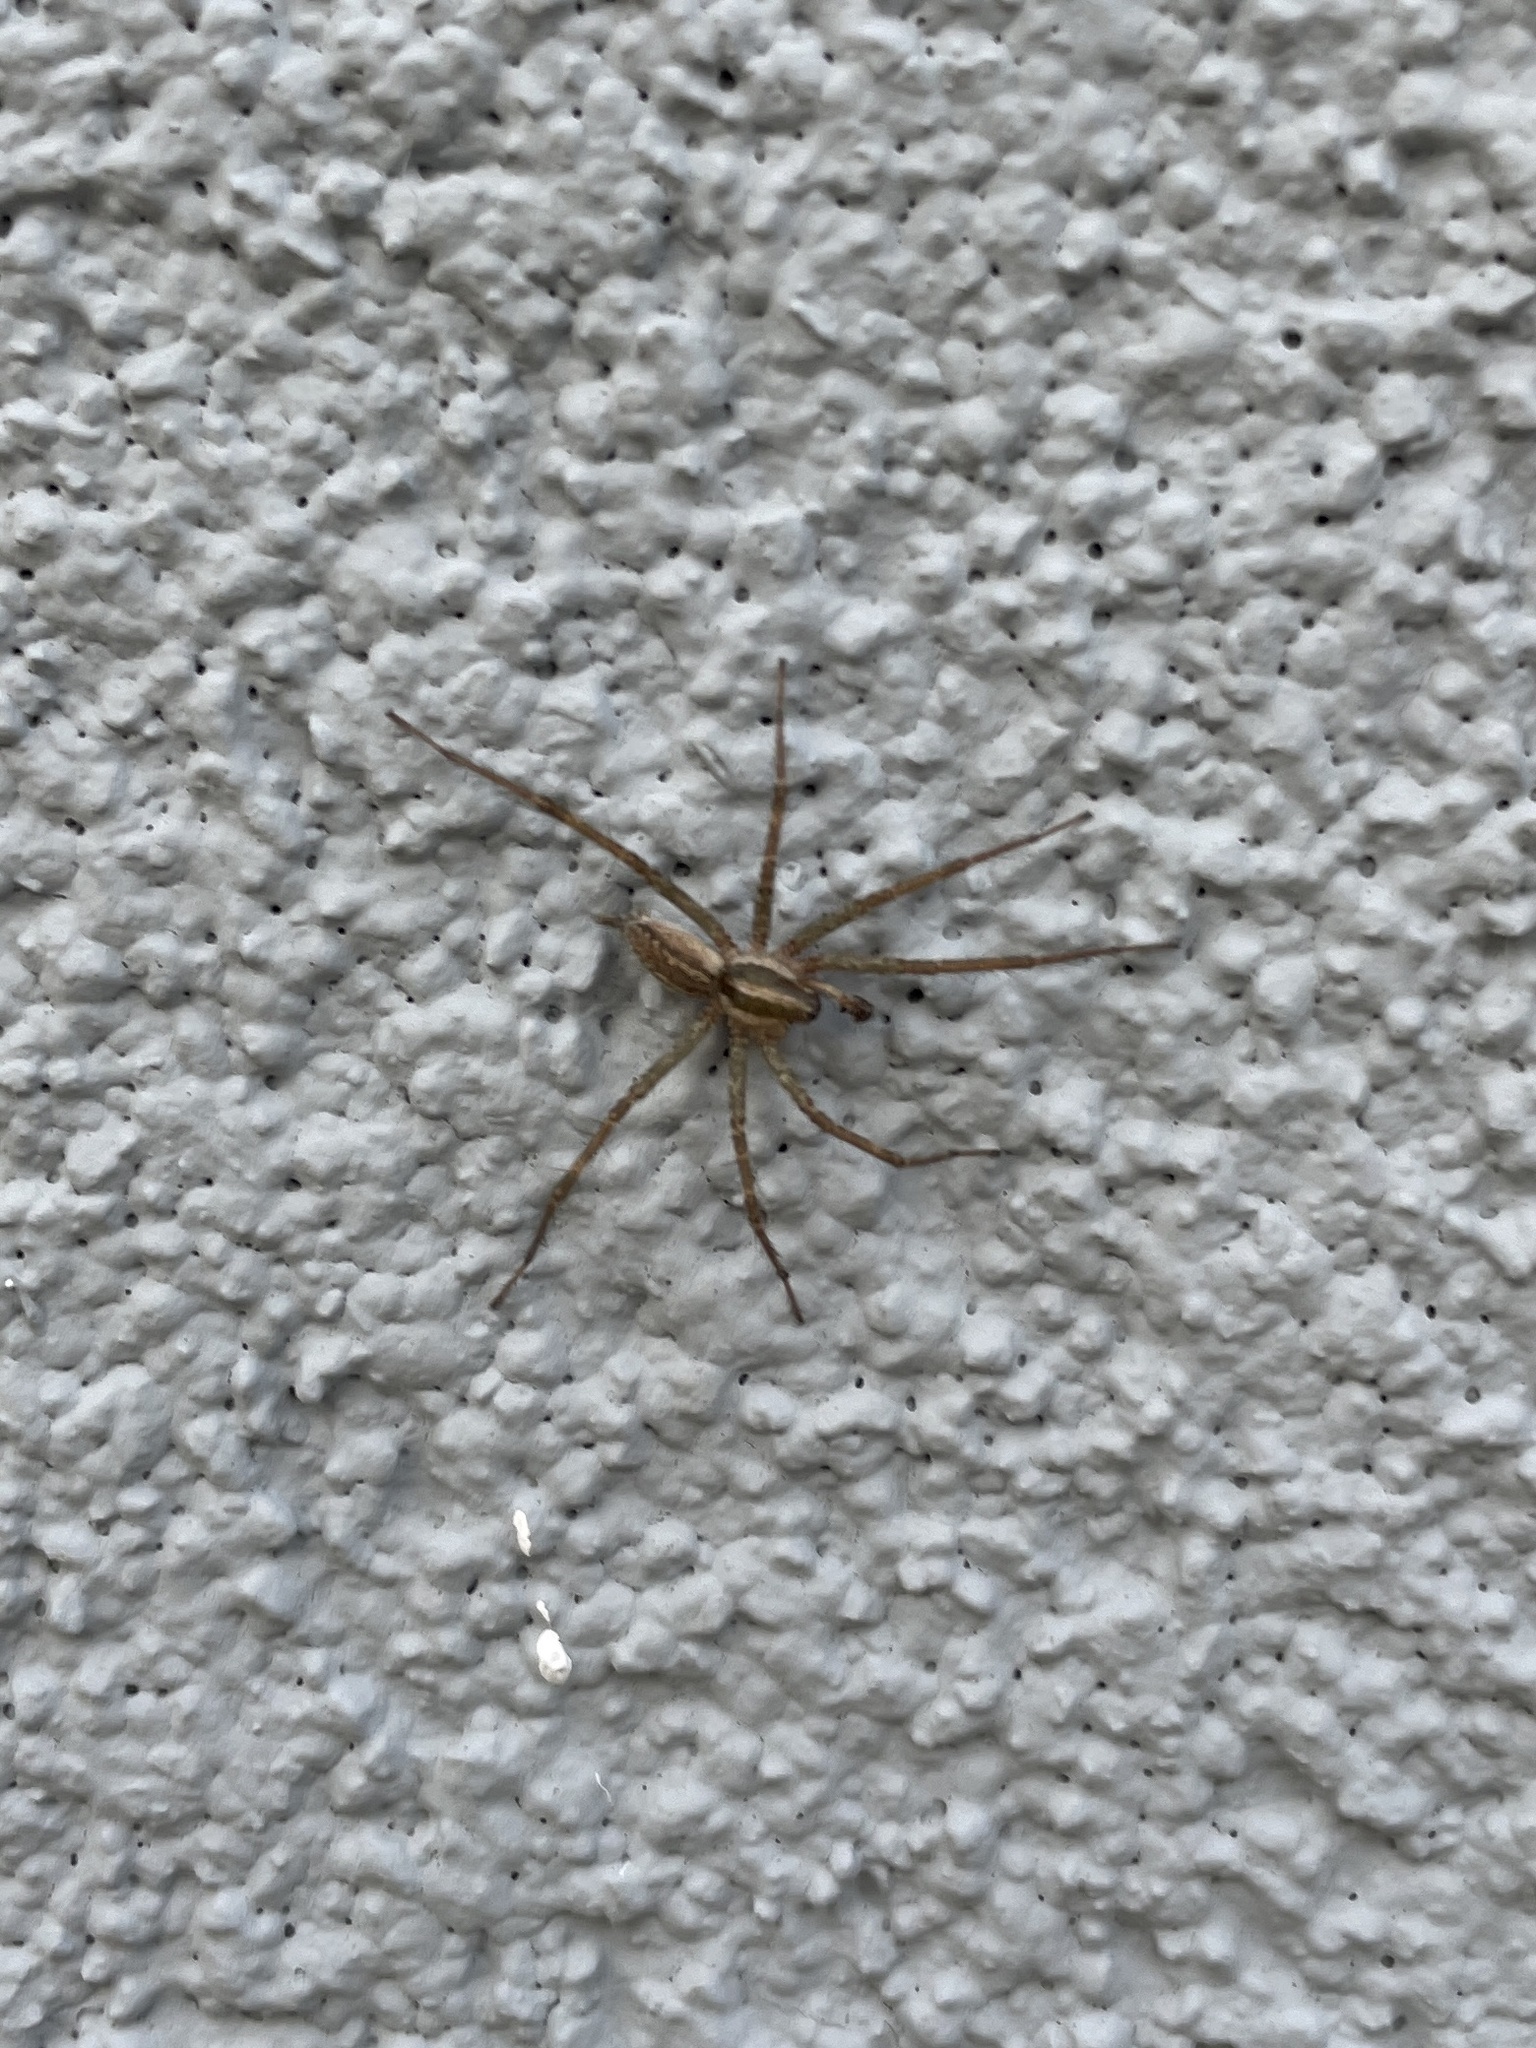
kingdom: Animalia
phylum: Arthropoda
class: Arachnida
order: Araneae
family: Agelenidae
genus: Agelenopsis
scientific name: Agelenopsis
